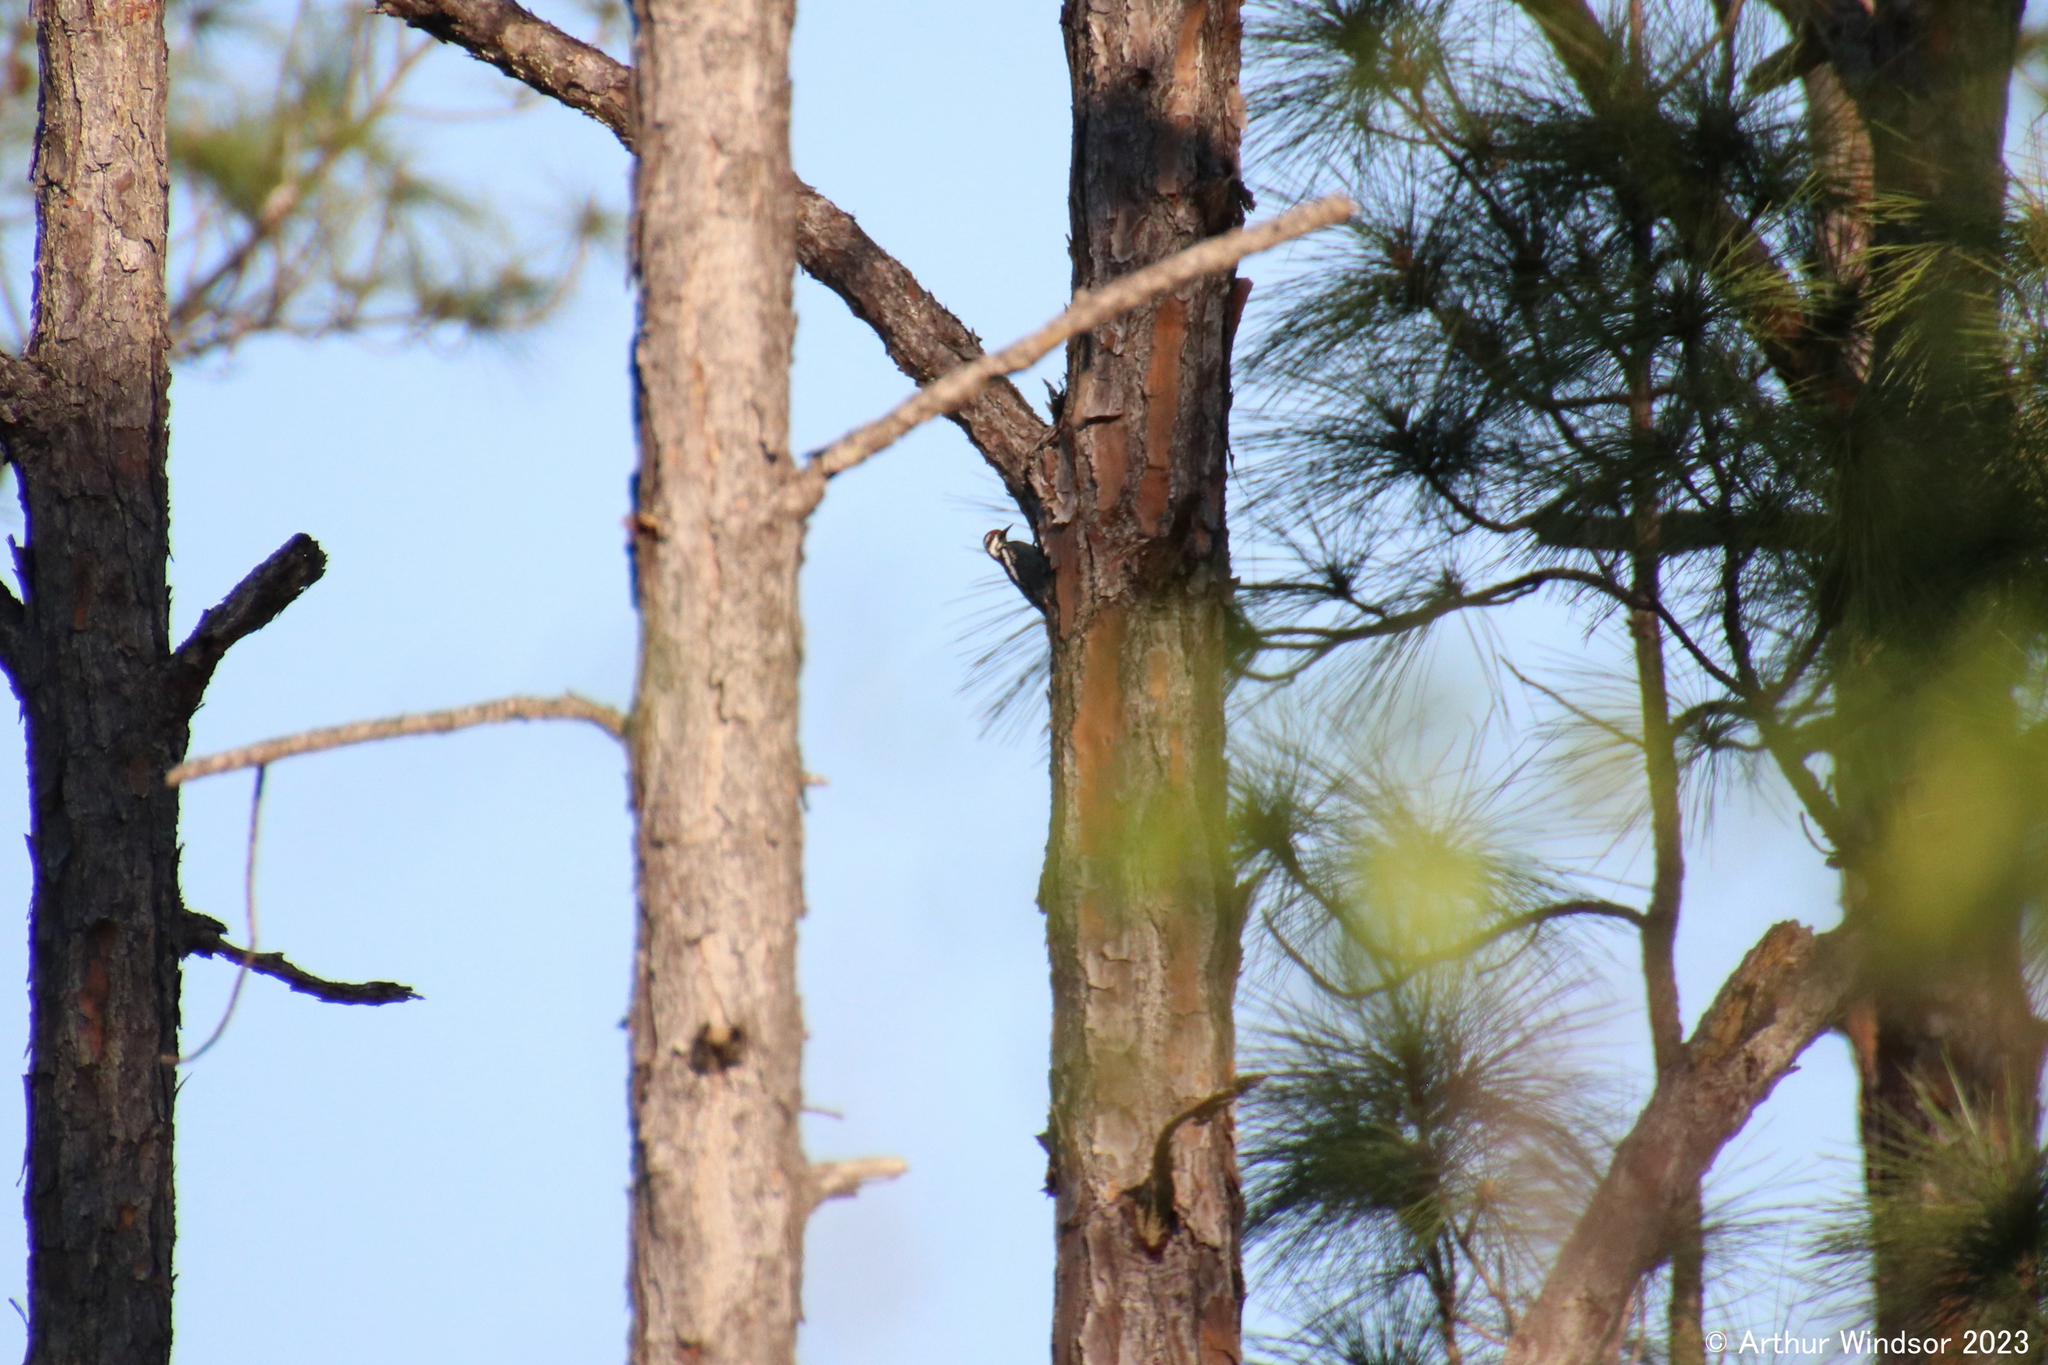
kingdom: Animalia
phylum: Chordata
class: Aves
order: Piciformes
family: Picidae
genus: Sphyrapicus
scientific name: Sphyrapicus varius
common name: Yellow-bellied sapsucker
